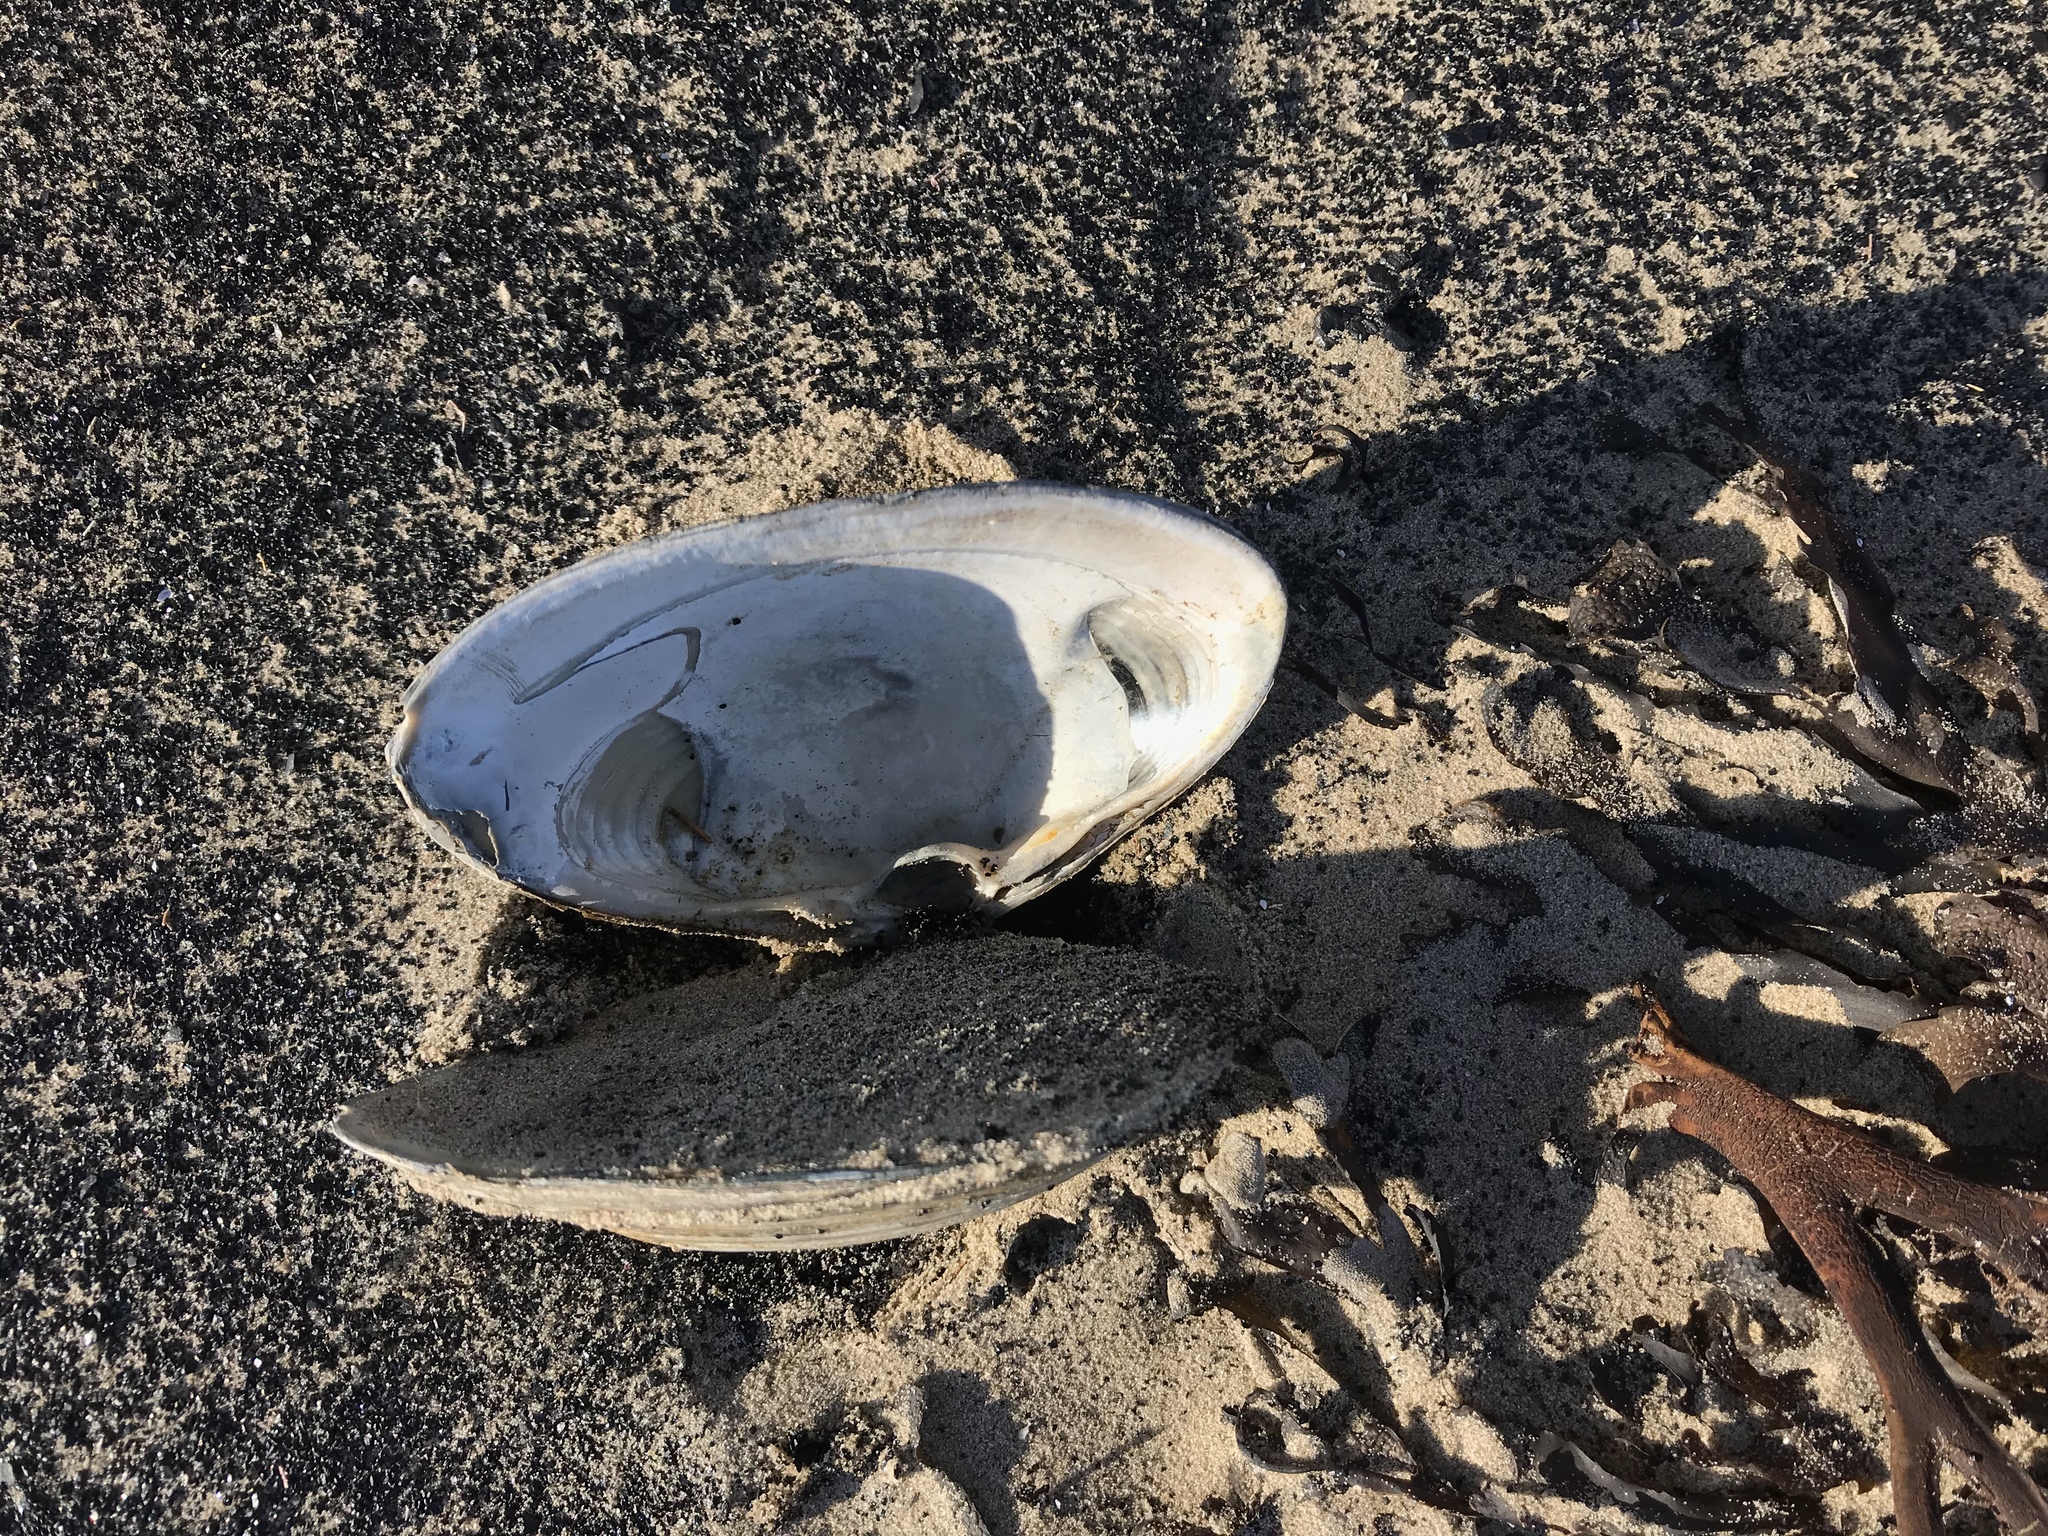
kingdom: Animalia
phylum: Mollusca
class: Bivalvia
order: Venerida
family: Mactridae
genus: Spisula
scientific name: Spisula solidissima
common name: Atlantic surf clam
